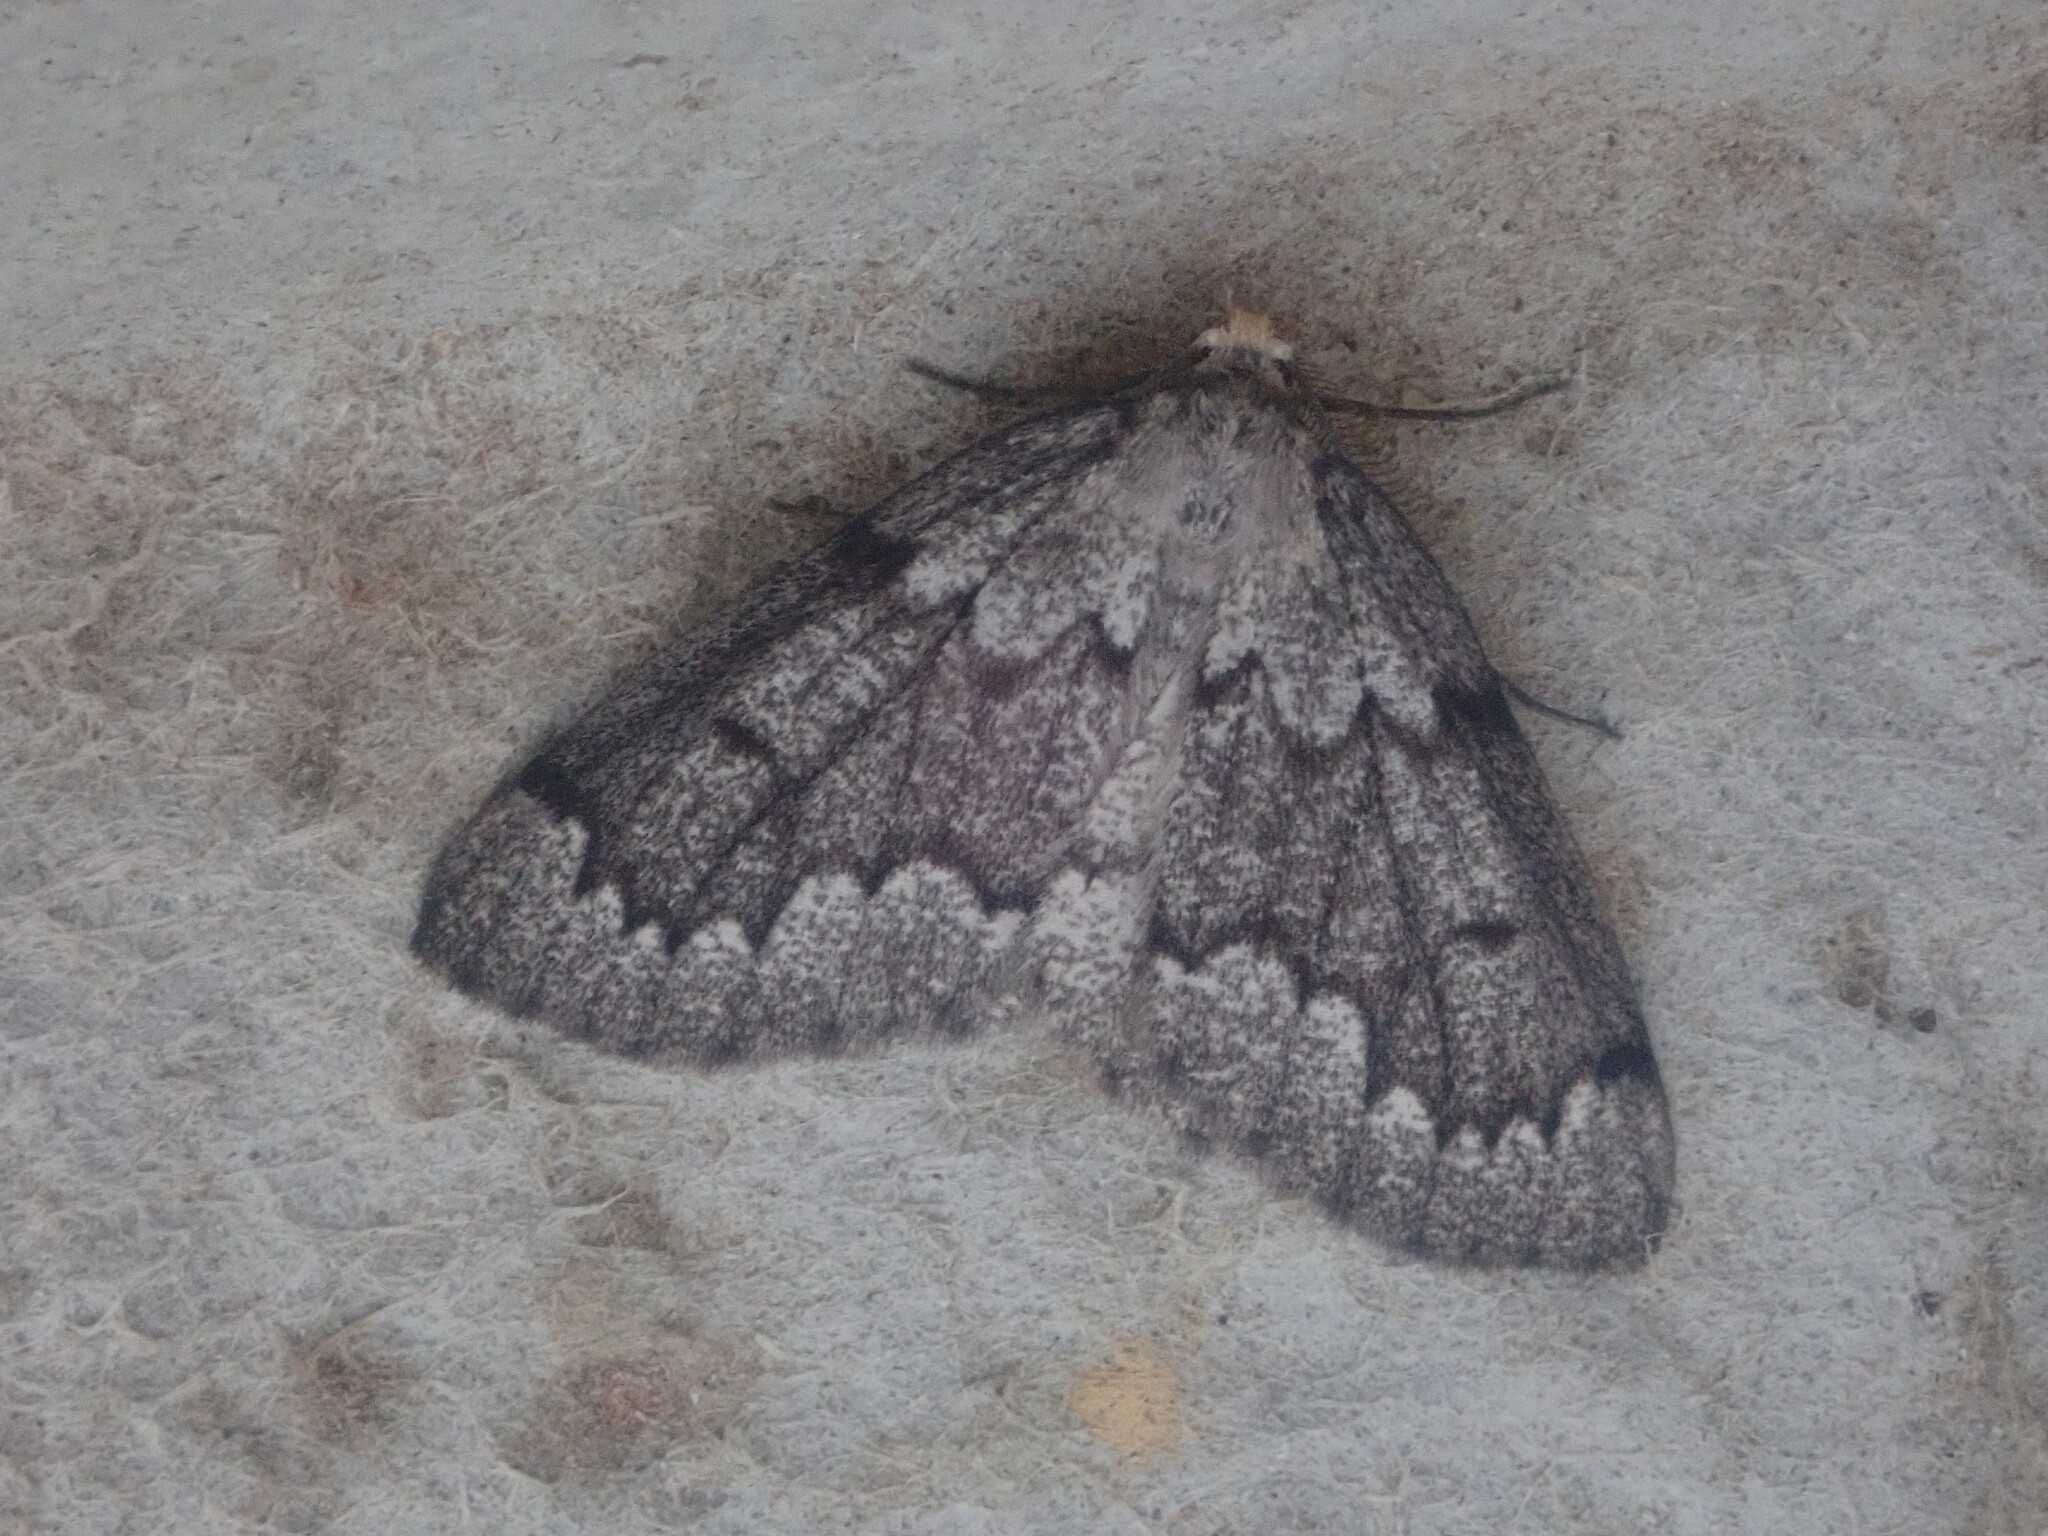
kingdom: Animalia
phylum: Arthropoda
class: Insecta
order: Lepidoptera
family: Geometridae
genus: Nepytia
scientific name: Nepytia canosaria
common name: False hemlock looper
